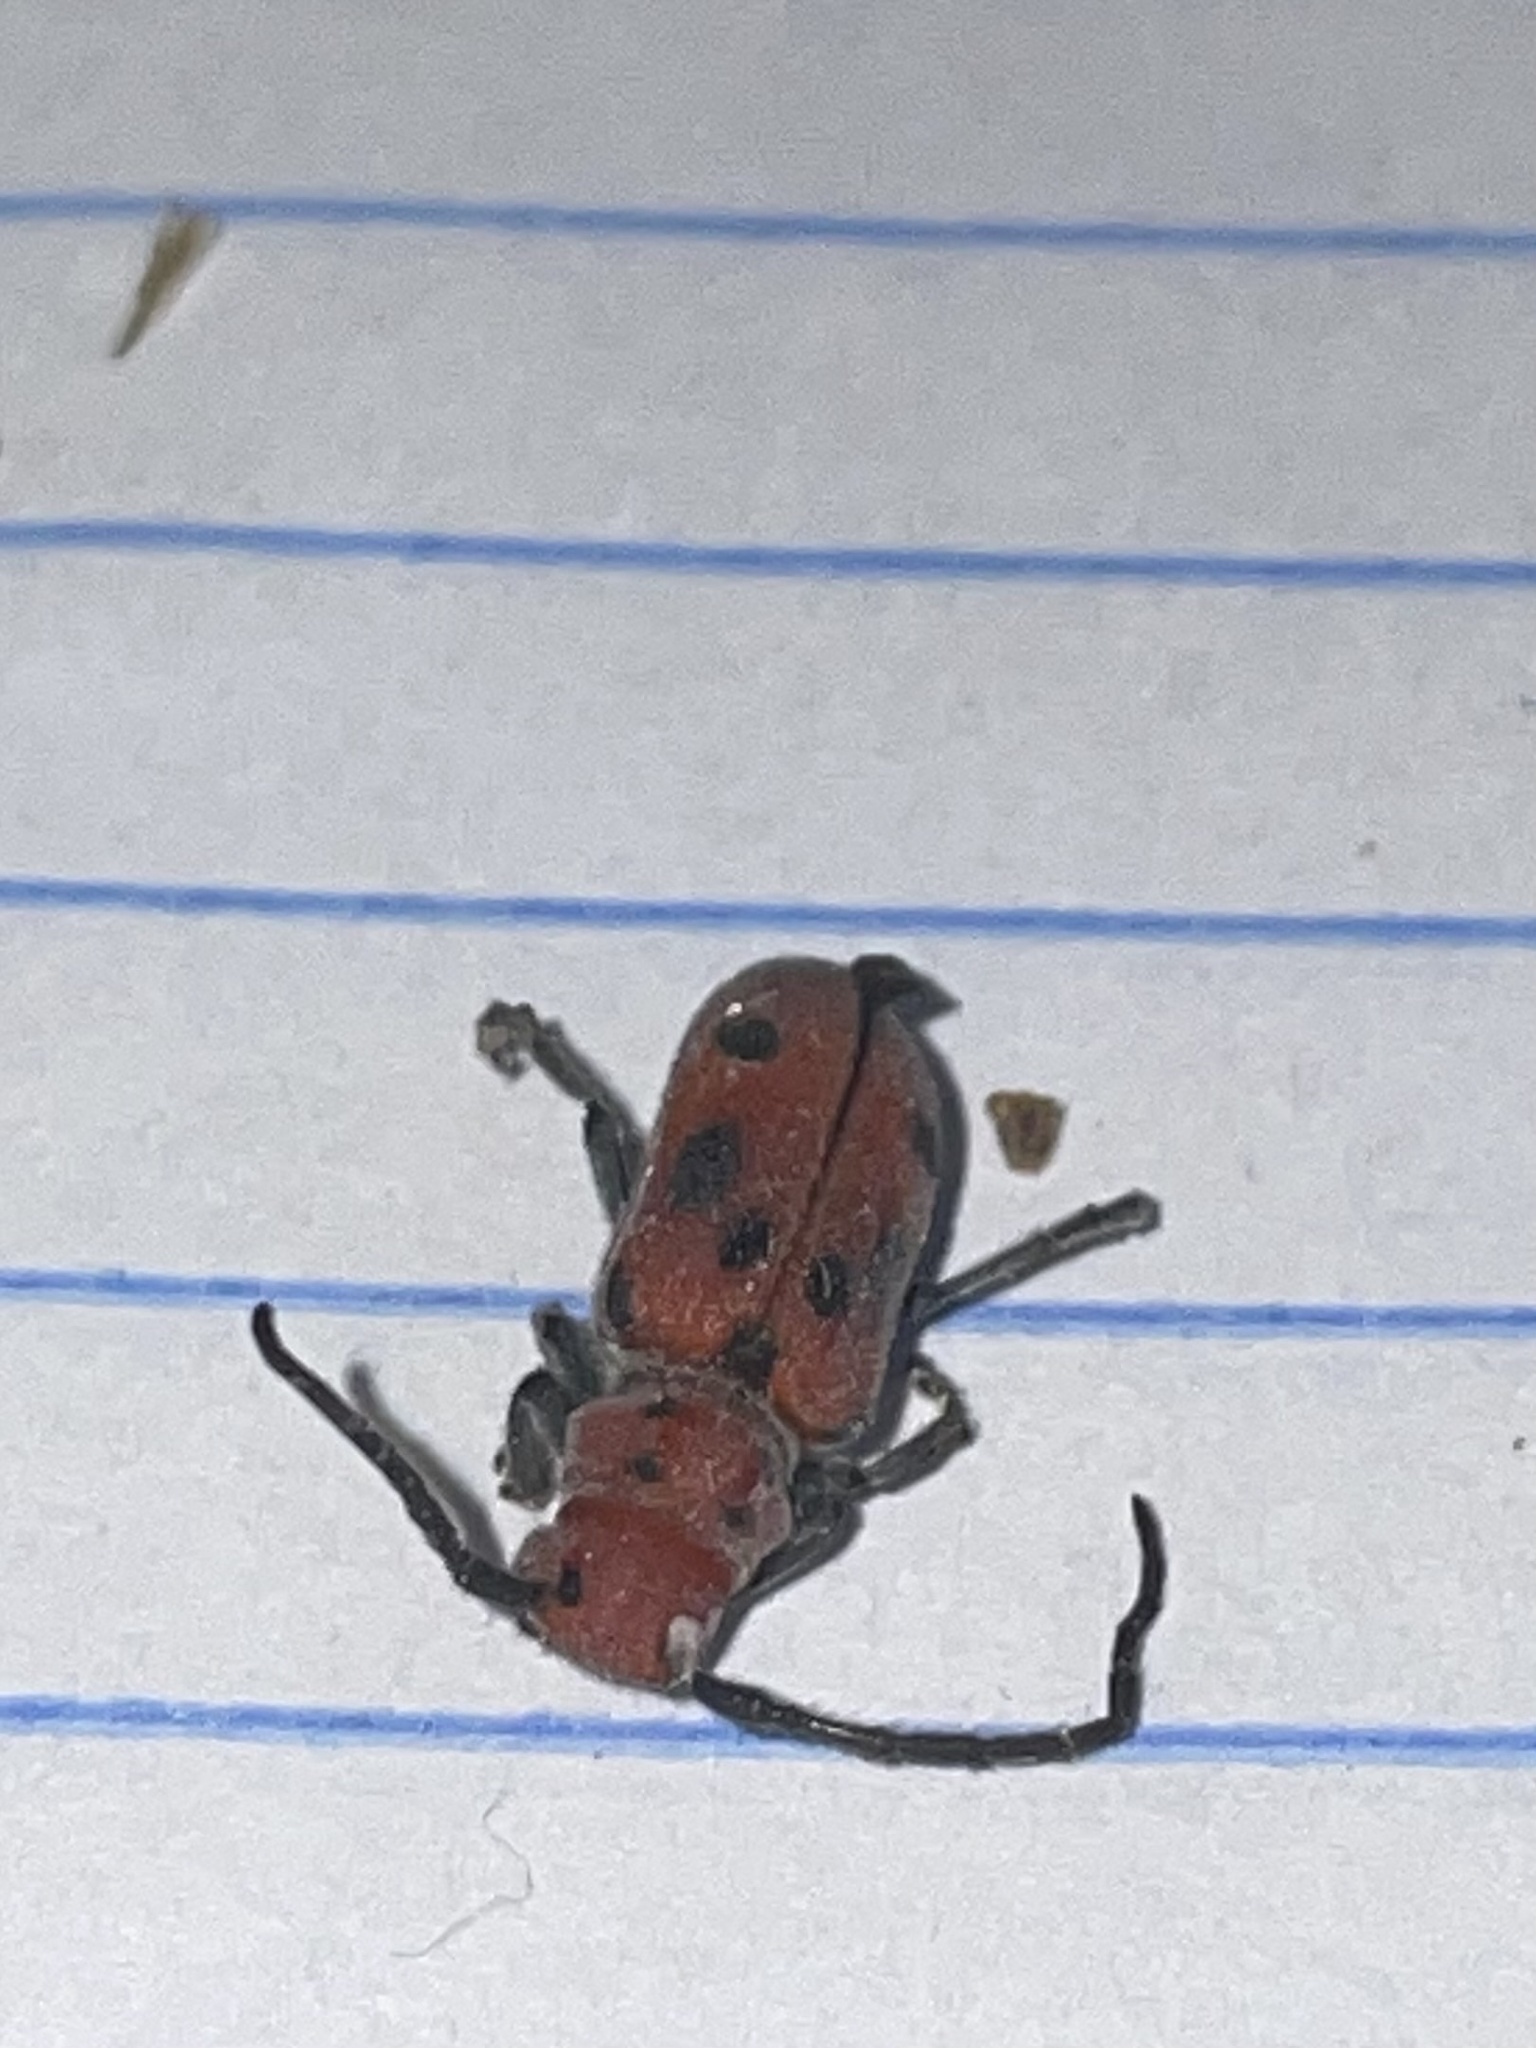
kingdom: Animalia
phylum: Arthropoda
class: Insecta
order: Coleoptera
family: Cerambycidae
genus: Tetraopes
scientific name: Tetraopes tetrophthalmus
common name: Red milkweed beetle
